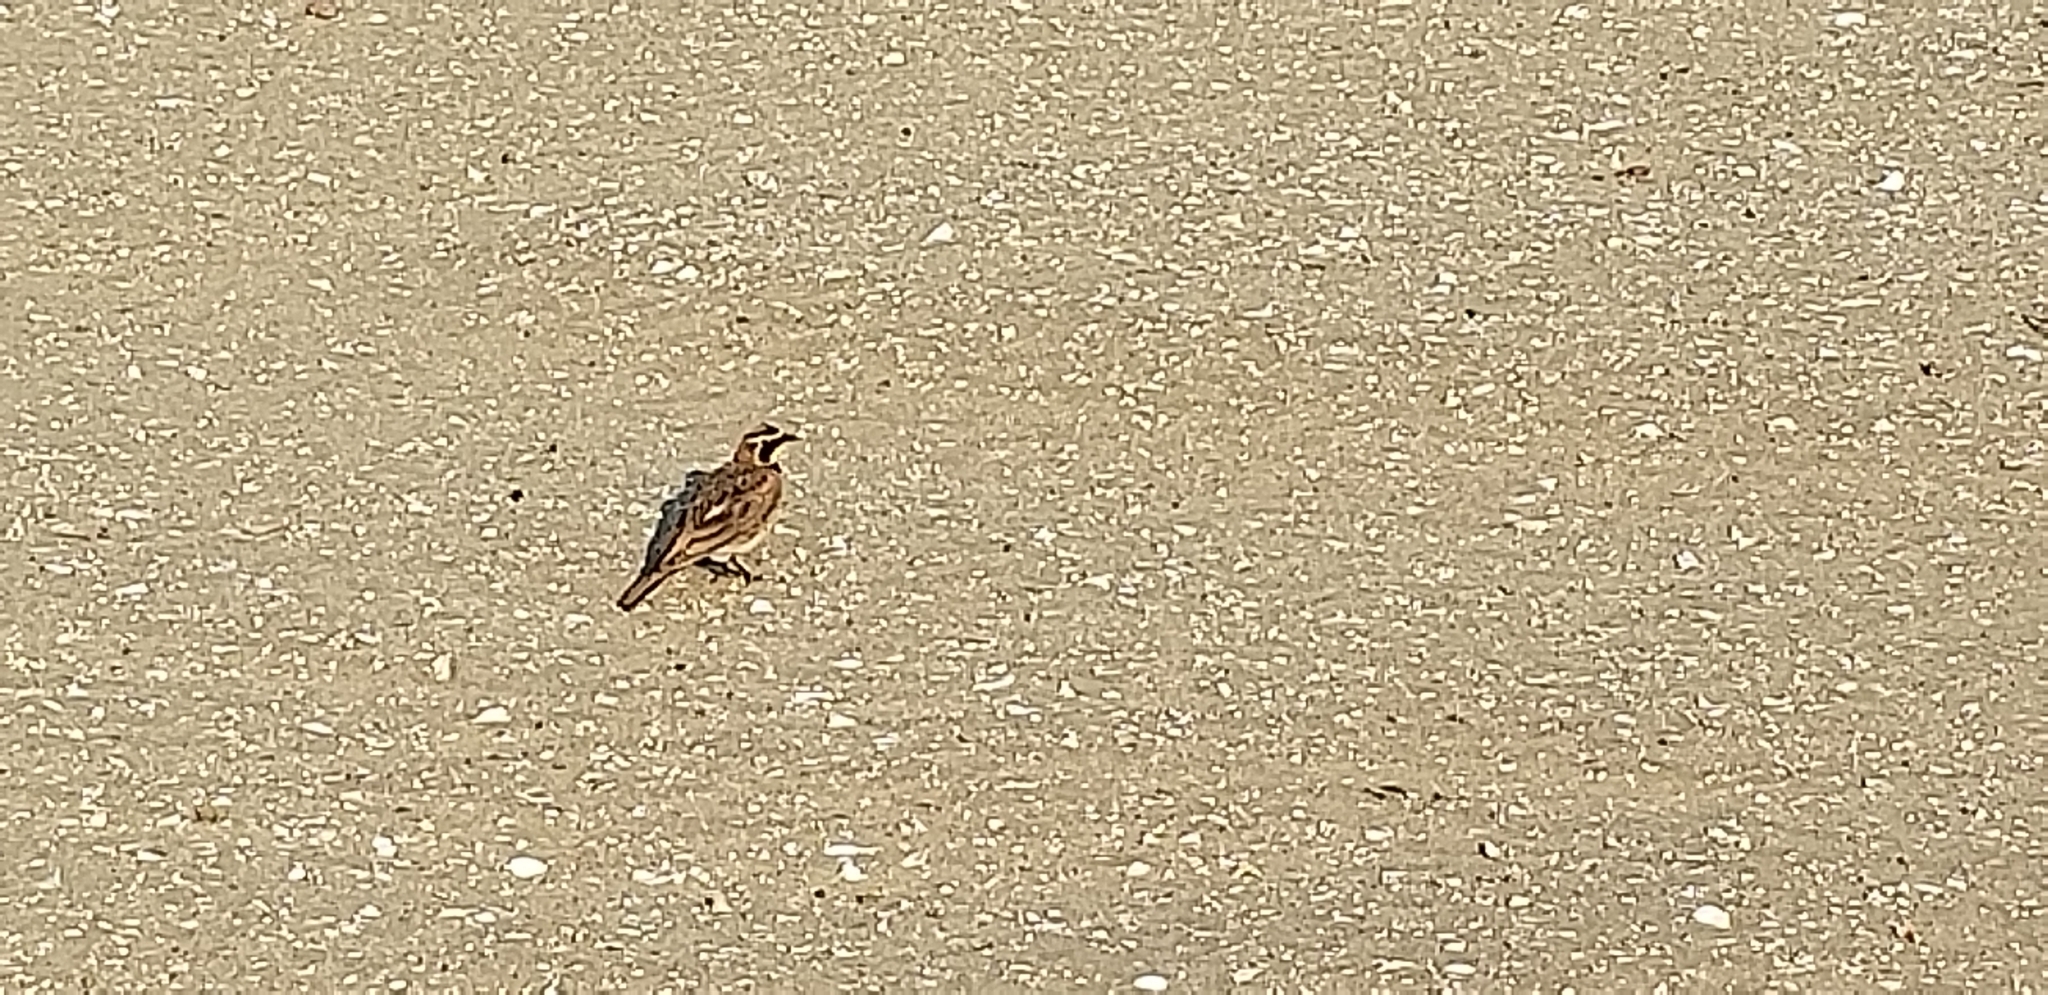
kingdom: Animalia
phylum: Chordata
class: Aves
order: Passeriformes
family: Alaudidae
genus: Eremophila
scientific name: Eremophila alpestris
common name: Horned lark
